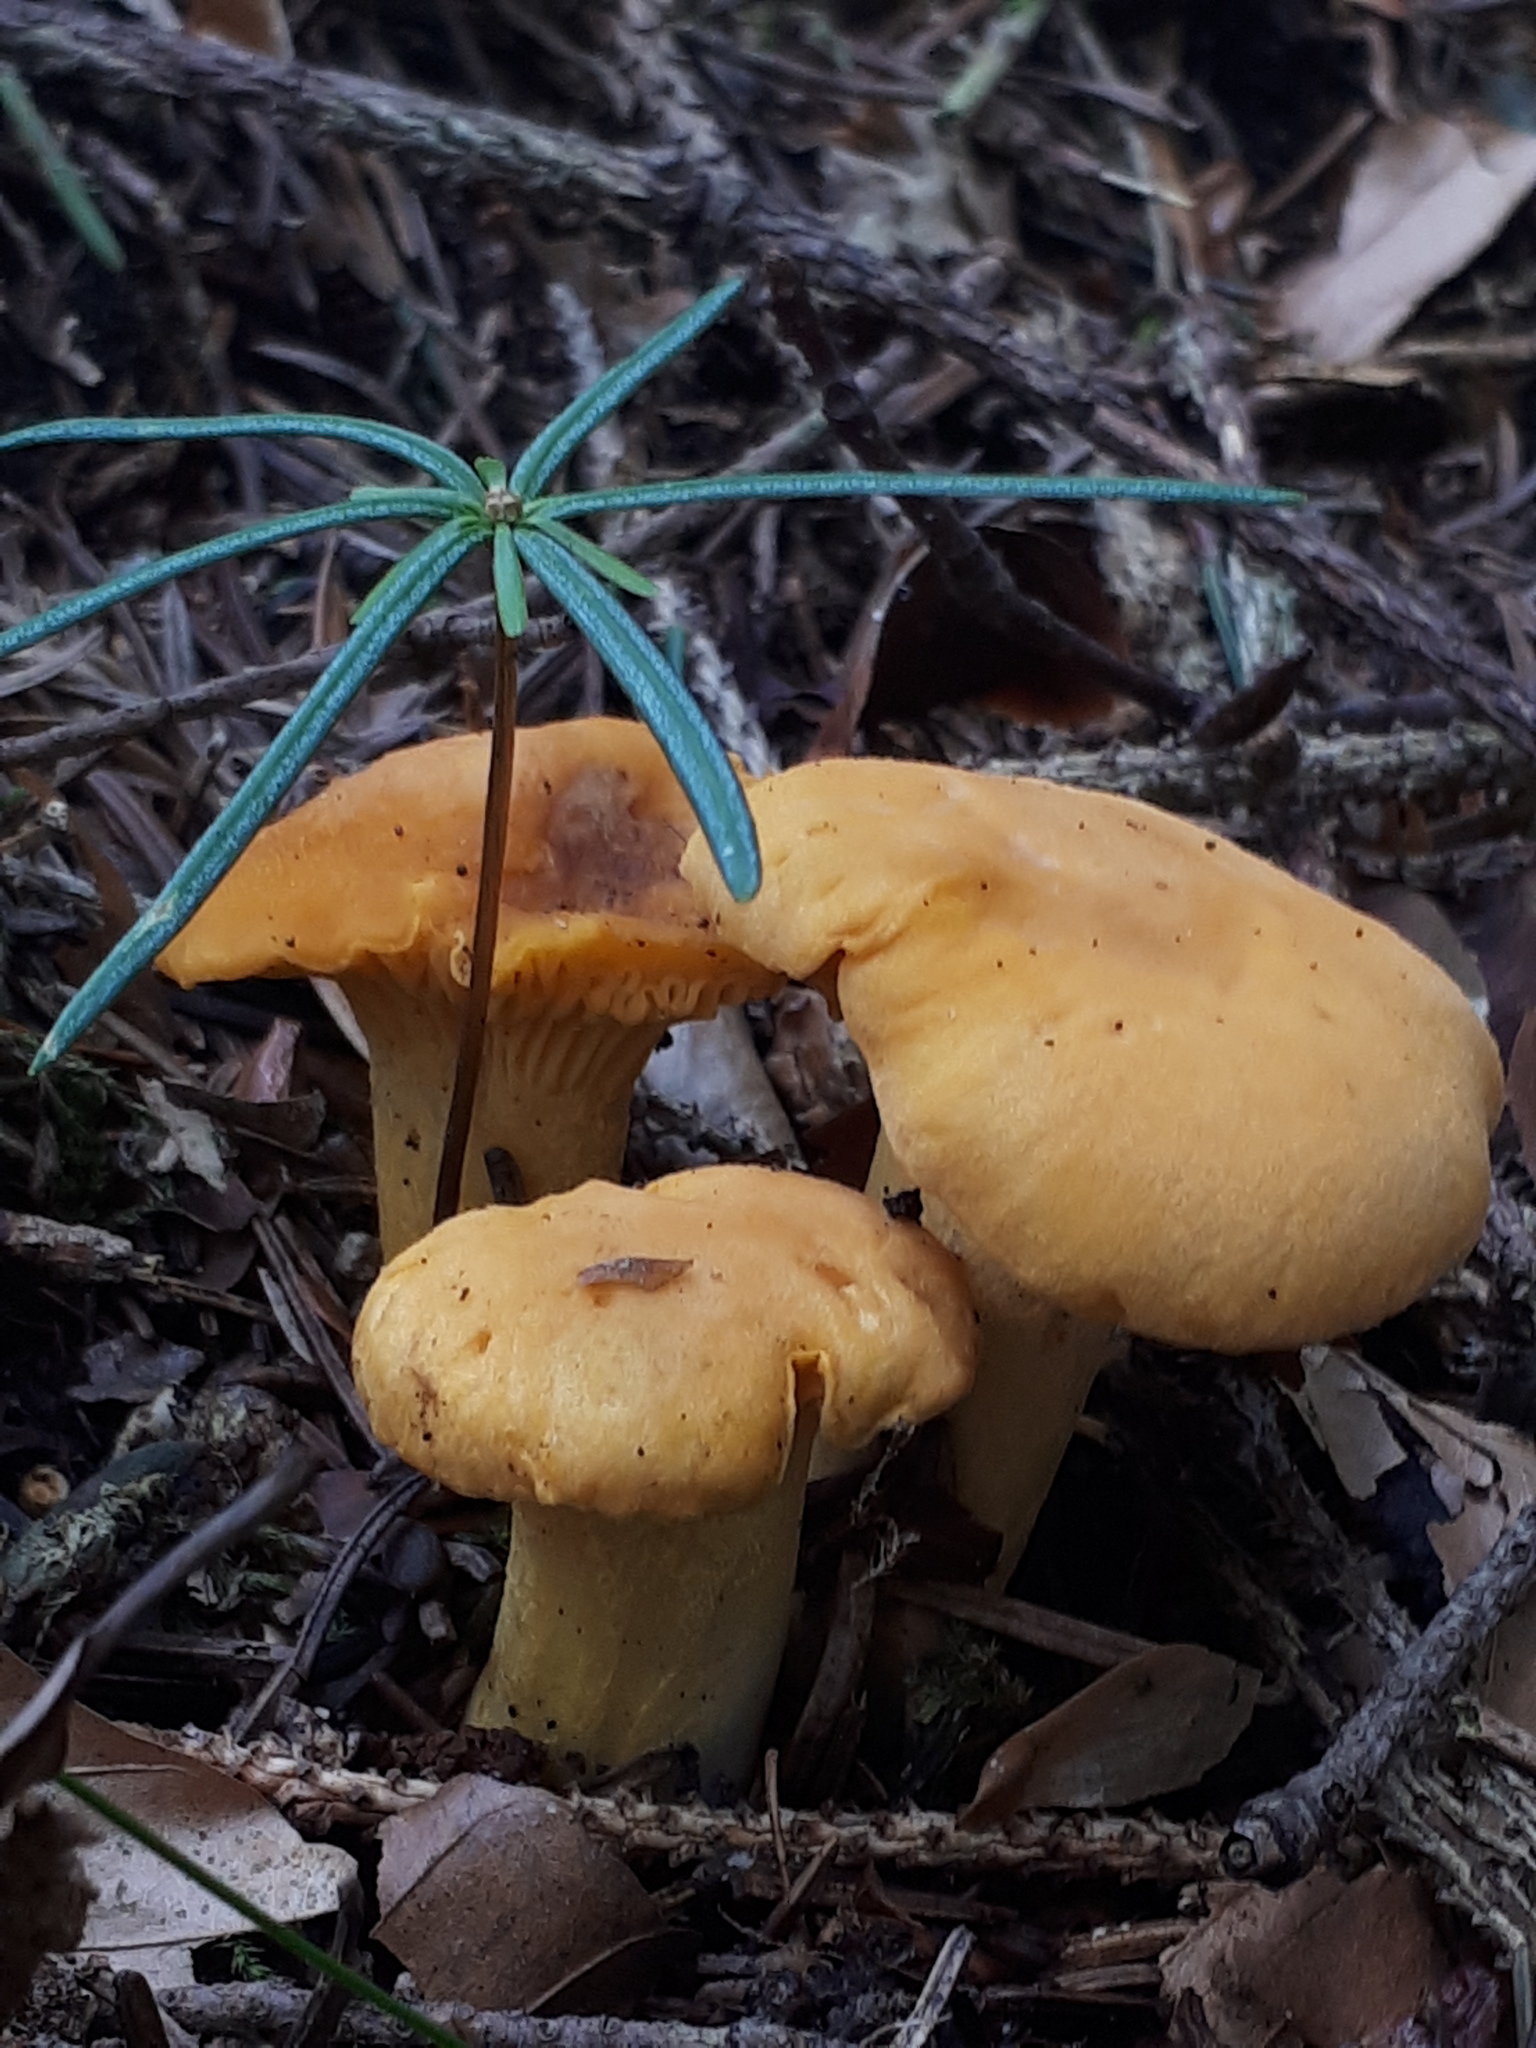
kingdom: Fungi
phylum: Basidiomycota
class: Agaricomycetes
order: Cantharellales
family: Hydnaceae
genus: Cantharellus
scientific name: Cantharellus cibarius
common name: Chanterelle
